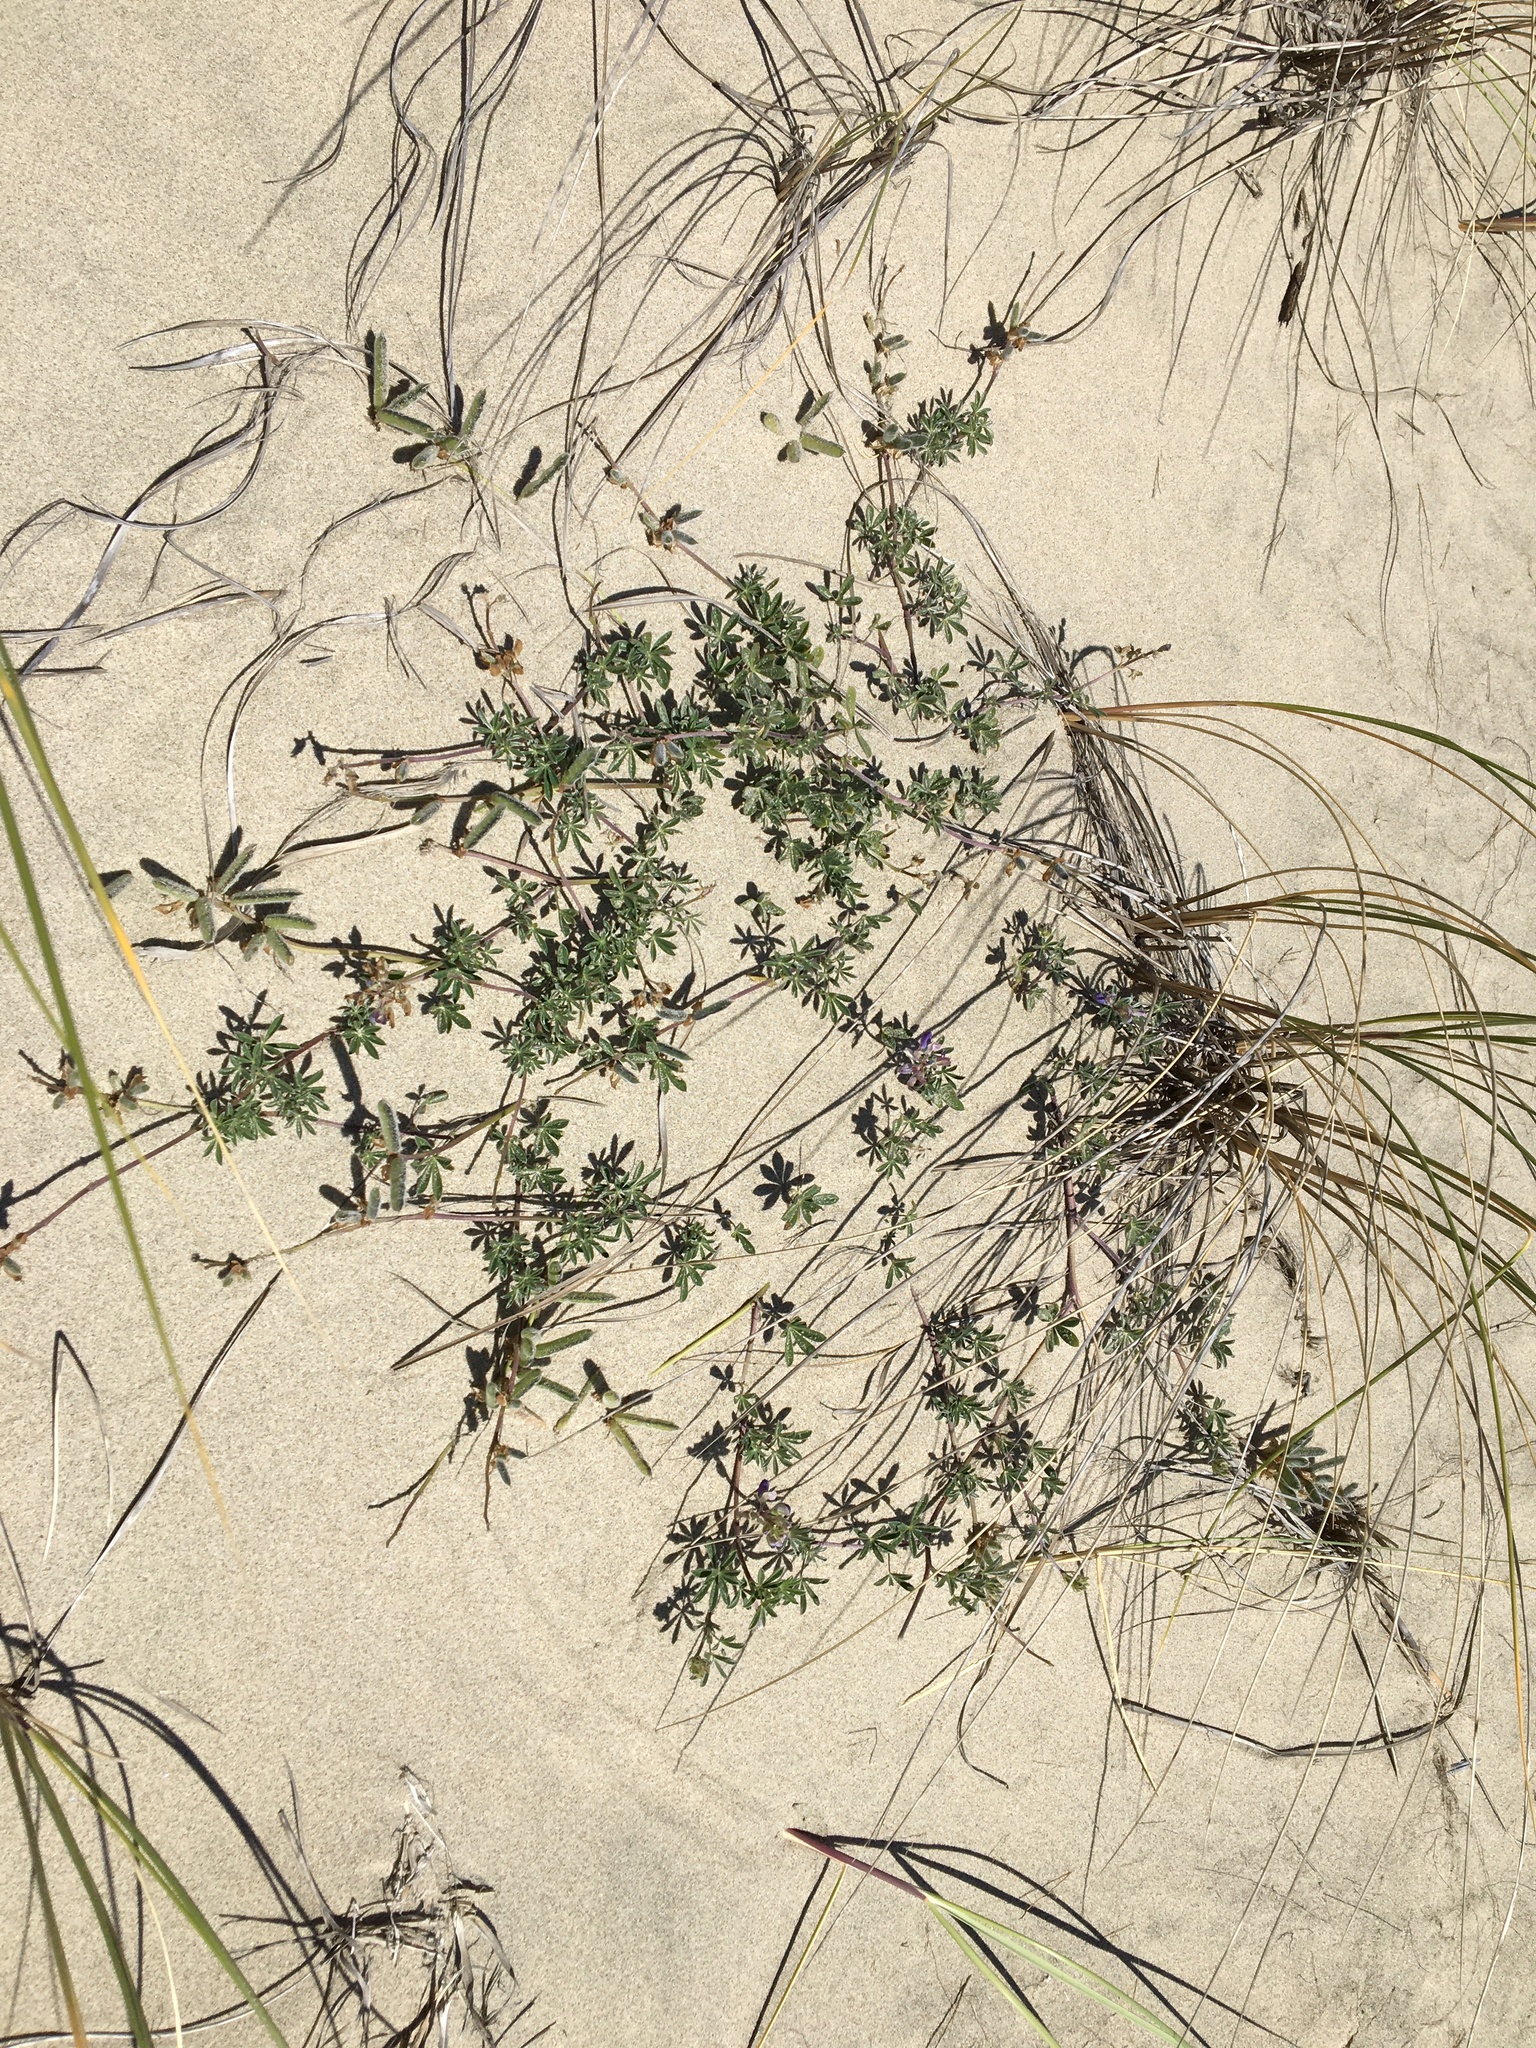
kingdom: Plantae
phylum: Tracheophyta
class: Magnoliopsida
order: Fabales
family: Fabaceae
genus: Lupinus
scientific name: Lupinus littoralis
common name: Seashore lupine
